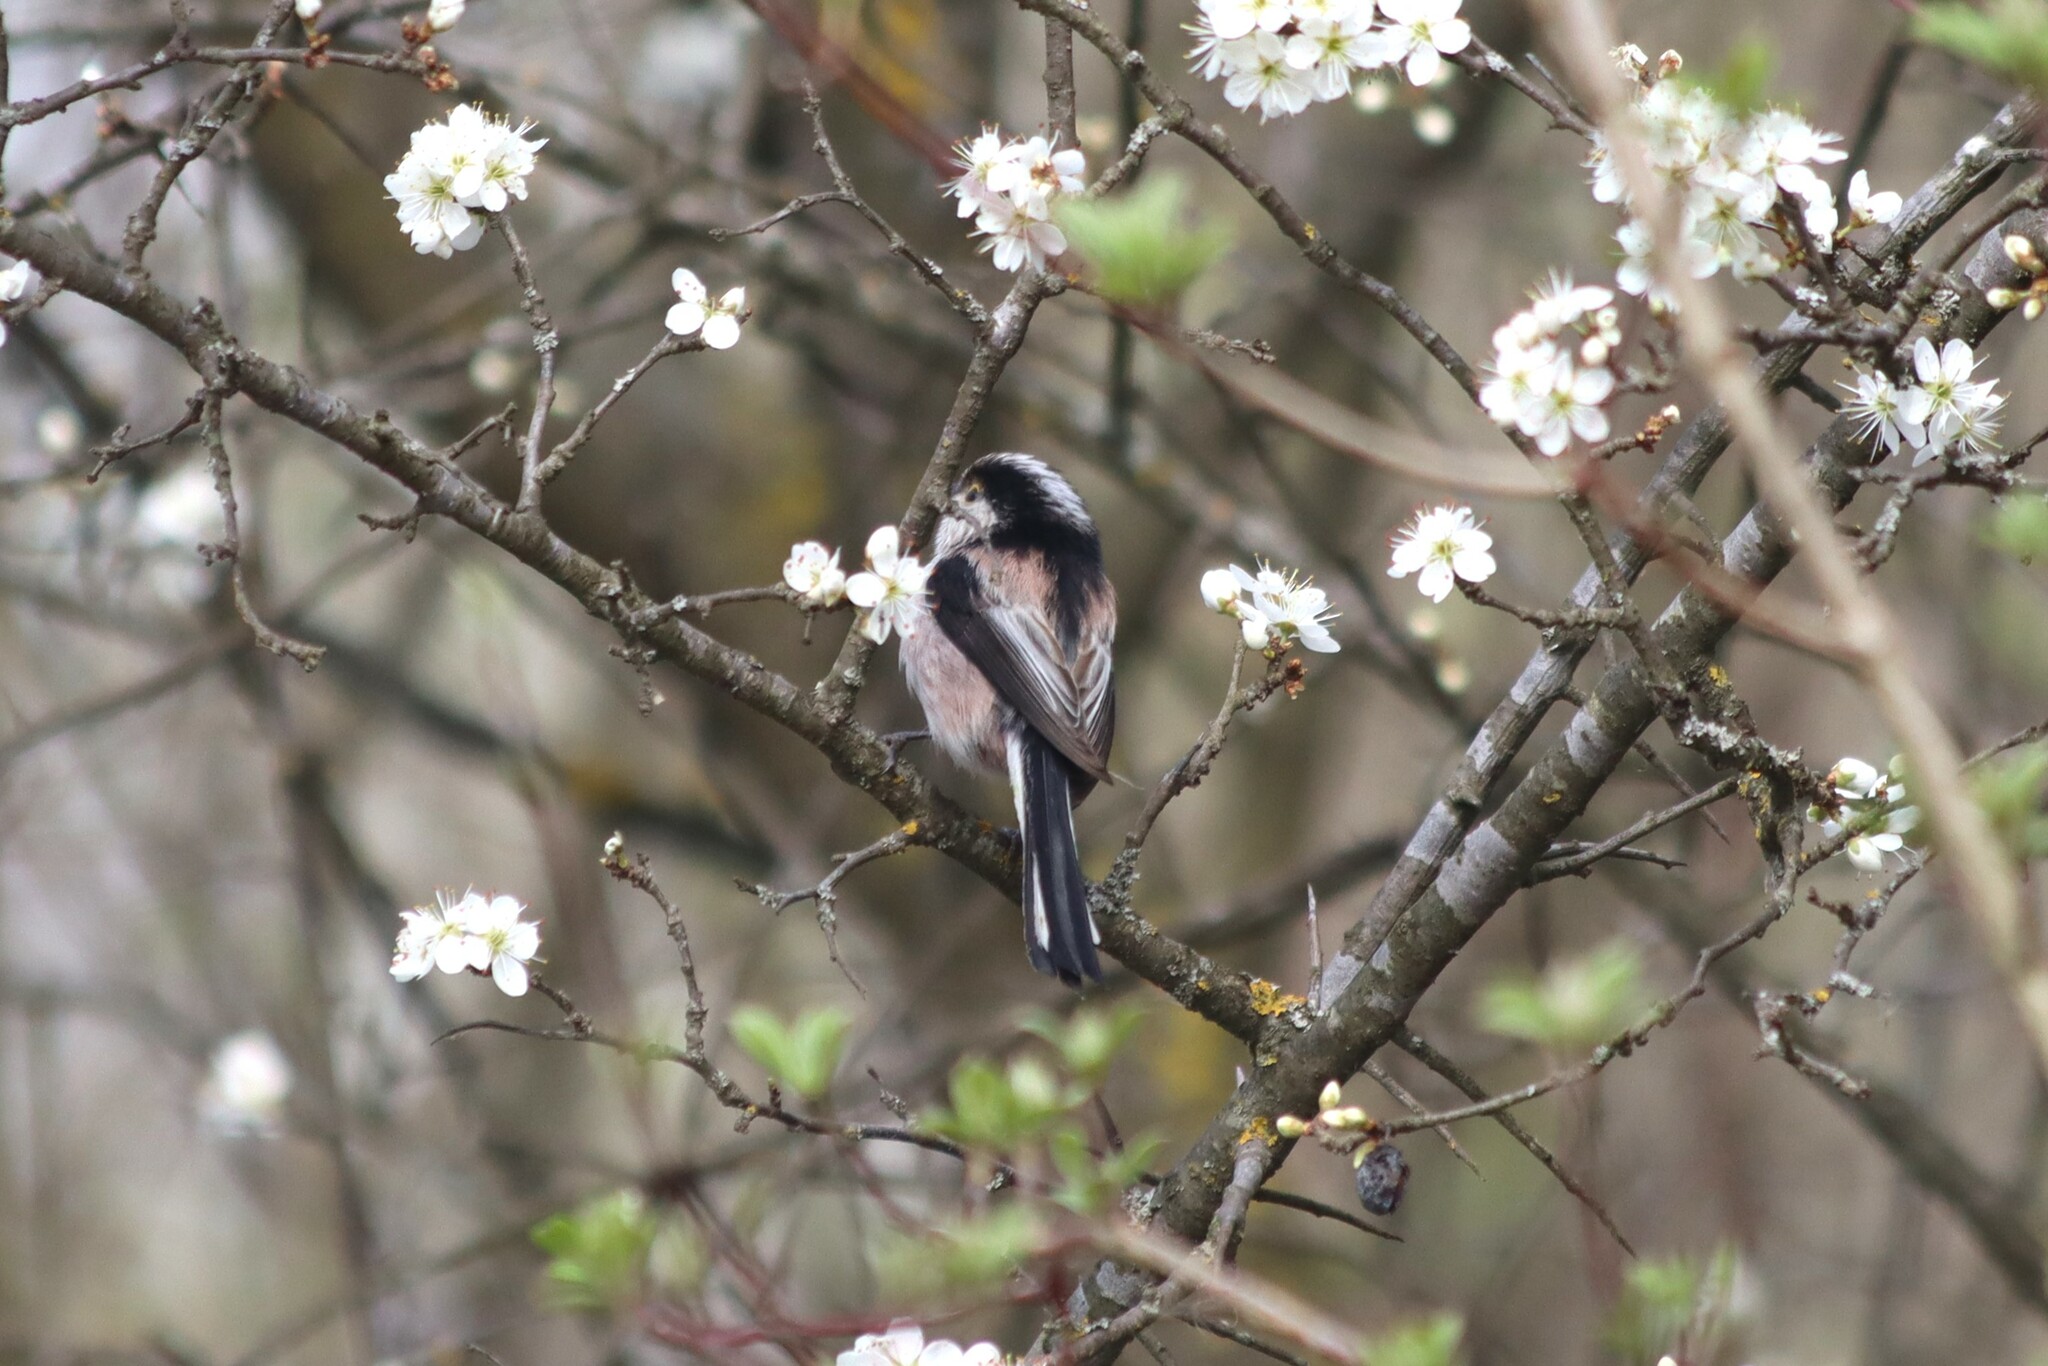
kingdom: Animalia
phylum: Chordata
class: Aves
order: Passeriformes
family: Aegithalidae
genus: Aegithalos
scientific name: Aegithalos caudatus
